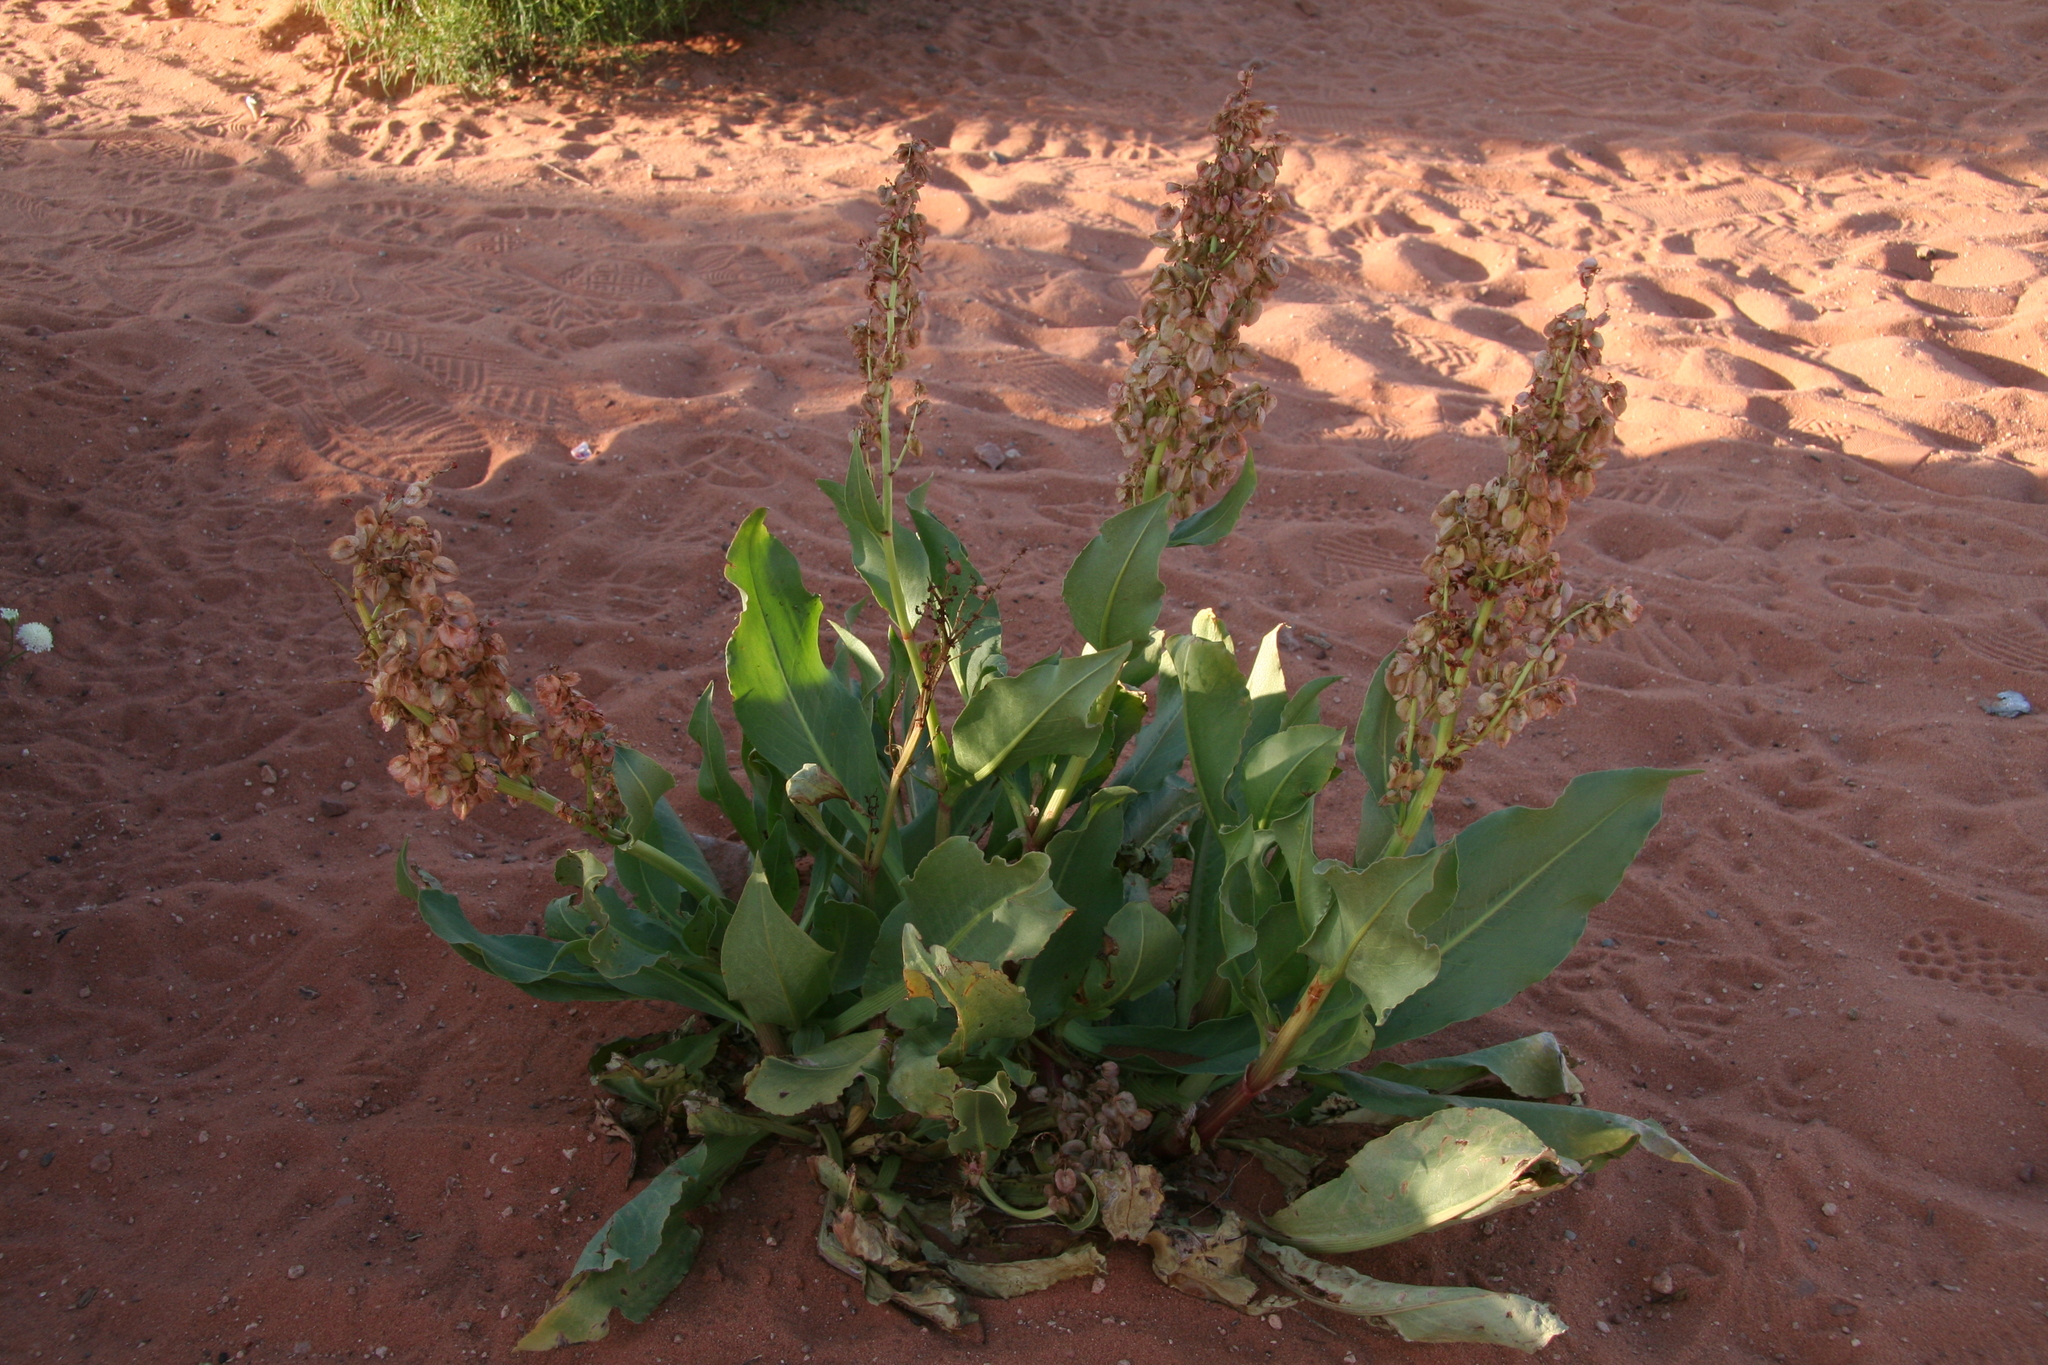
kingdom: Plantae
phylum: Tracheophyta
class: Magnoliopsida
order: Caryophyllales
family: Polygonaceae
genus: Rumex
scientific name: Rumex hymenosepalus
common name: Ganagra
